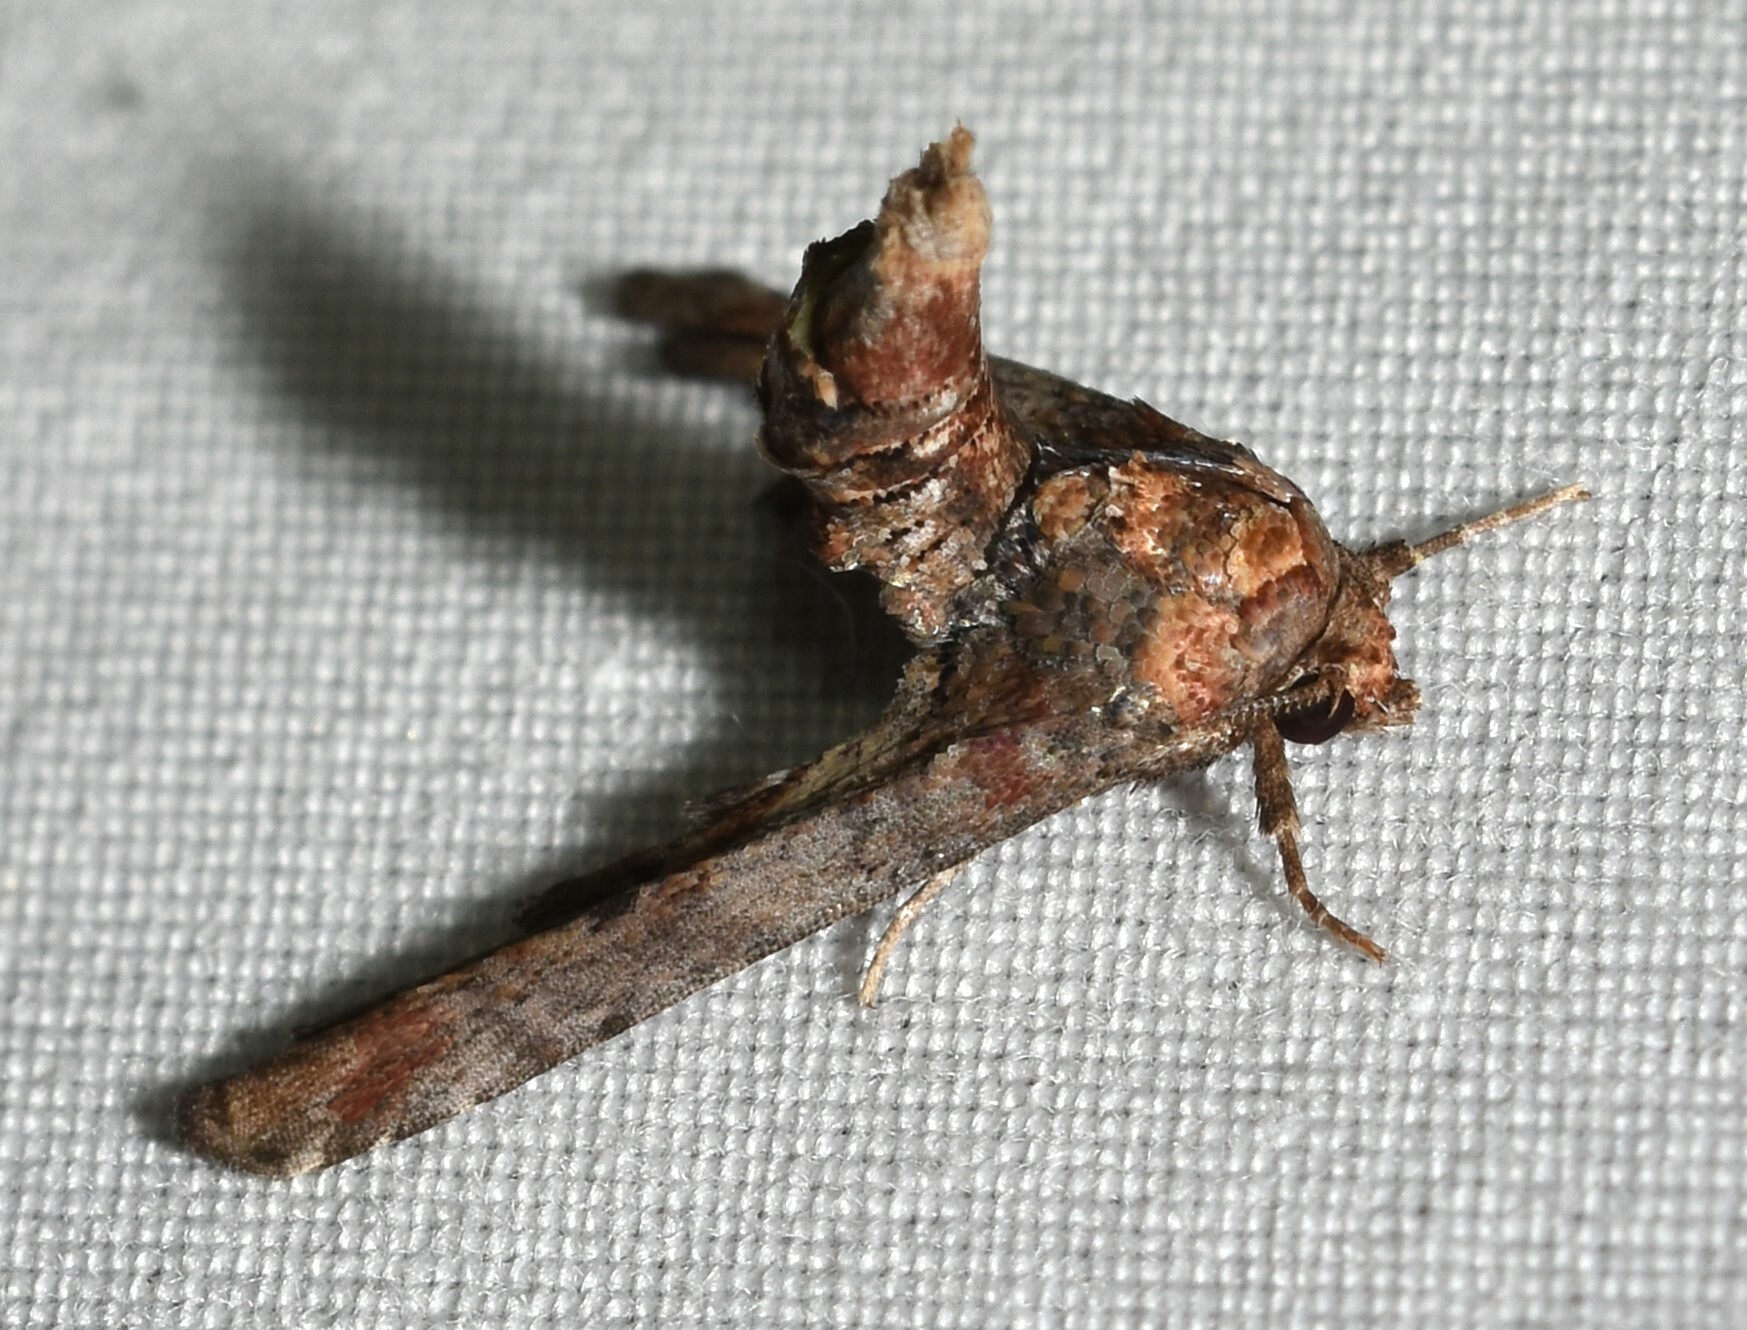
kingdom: Animalia
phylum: Arthropoda
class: Insecta
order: Lepidoptera
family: Euteliidae
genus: Marathyssa
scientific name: Marathyssa inficita
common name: Dark marathyssa moth
